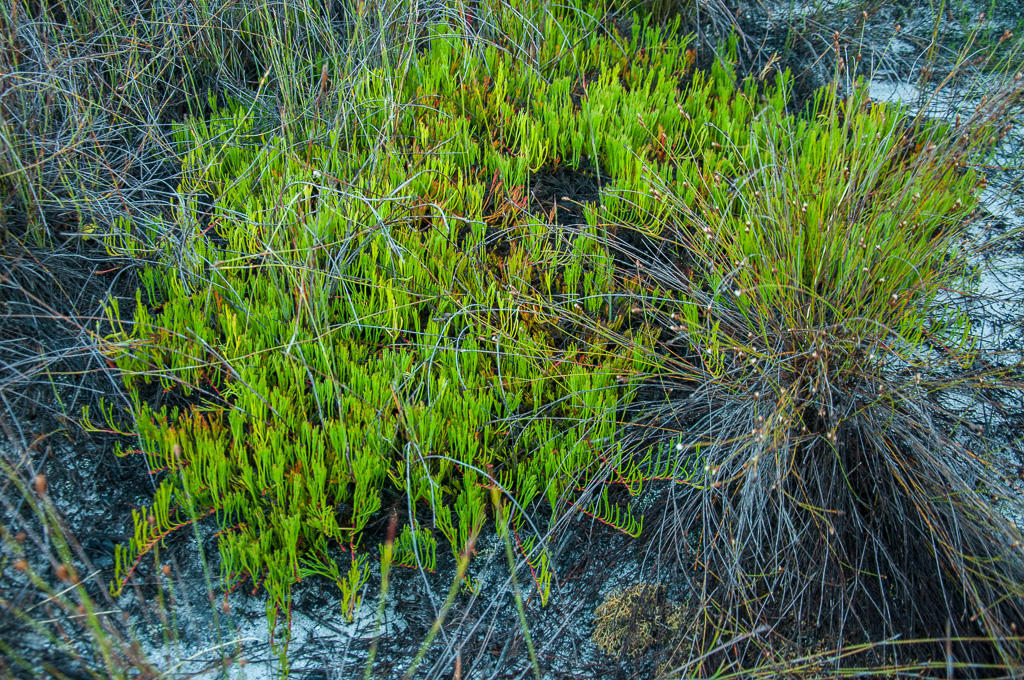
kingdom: Plantae
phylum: Tracheophyta
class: Magnoliopsida
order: Proteales
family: Proteaceae
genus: Serruria
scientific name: Serruria flagellifolia
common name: Houwhoek spiderhead
